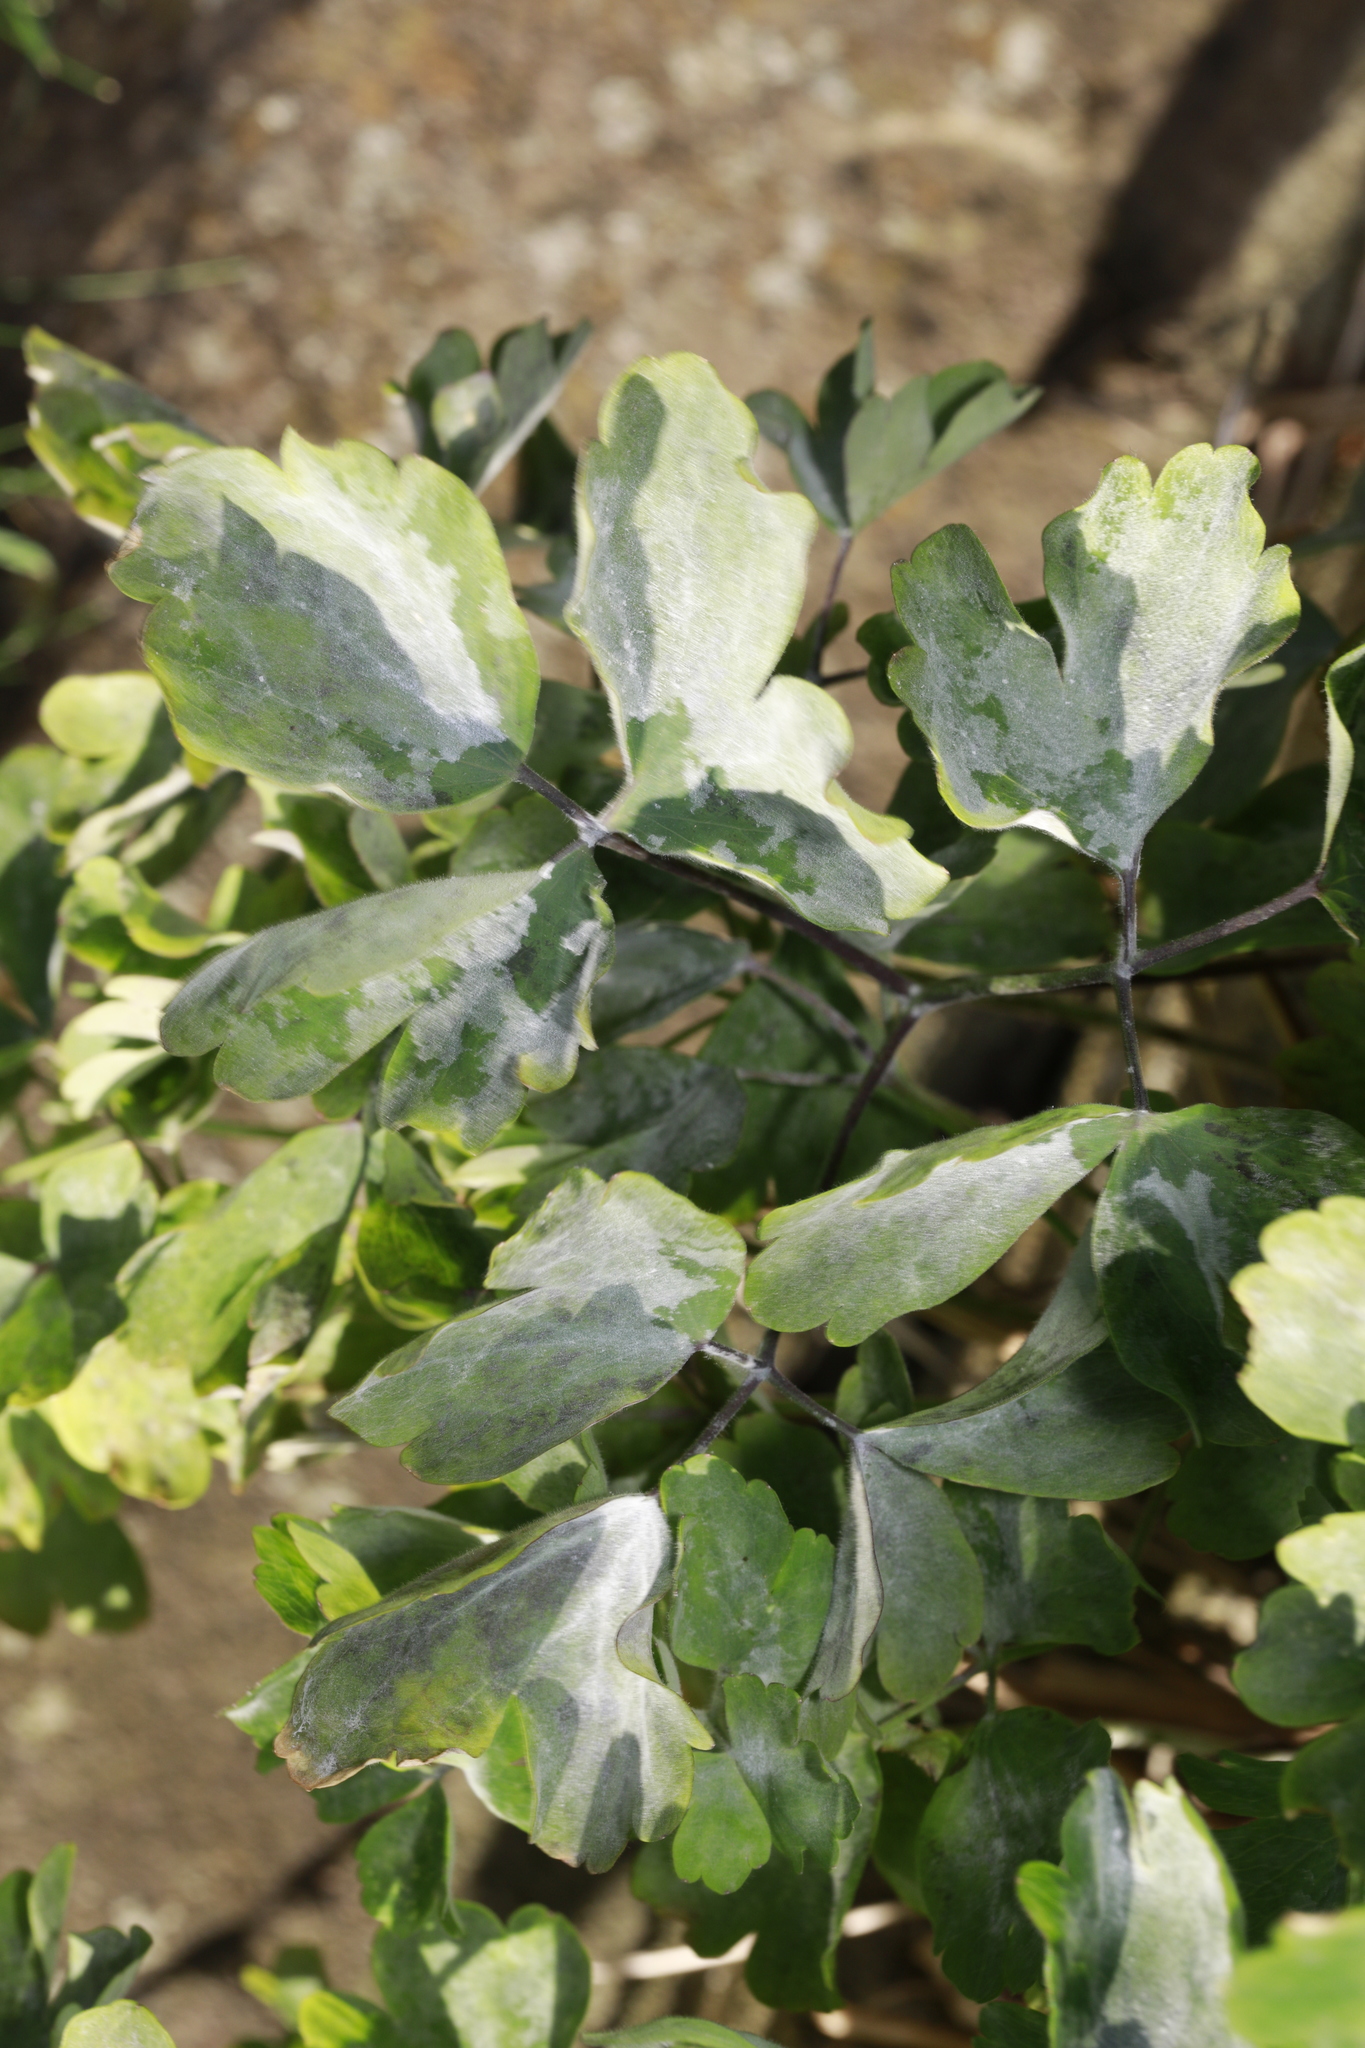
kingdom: Fungi
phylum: Ascomycota
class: Leotiomycetes
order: Helotiales
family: Erysiphaceae
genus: Erysiphe
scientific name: Erysiphe aquilegiae
